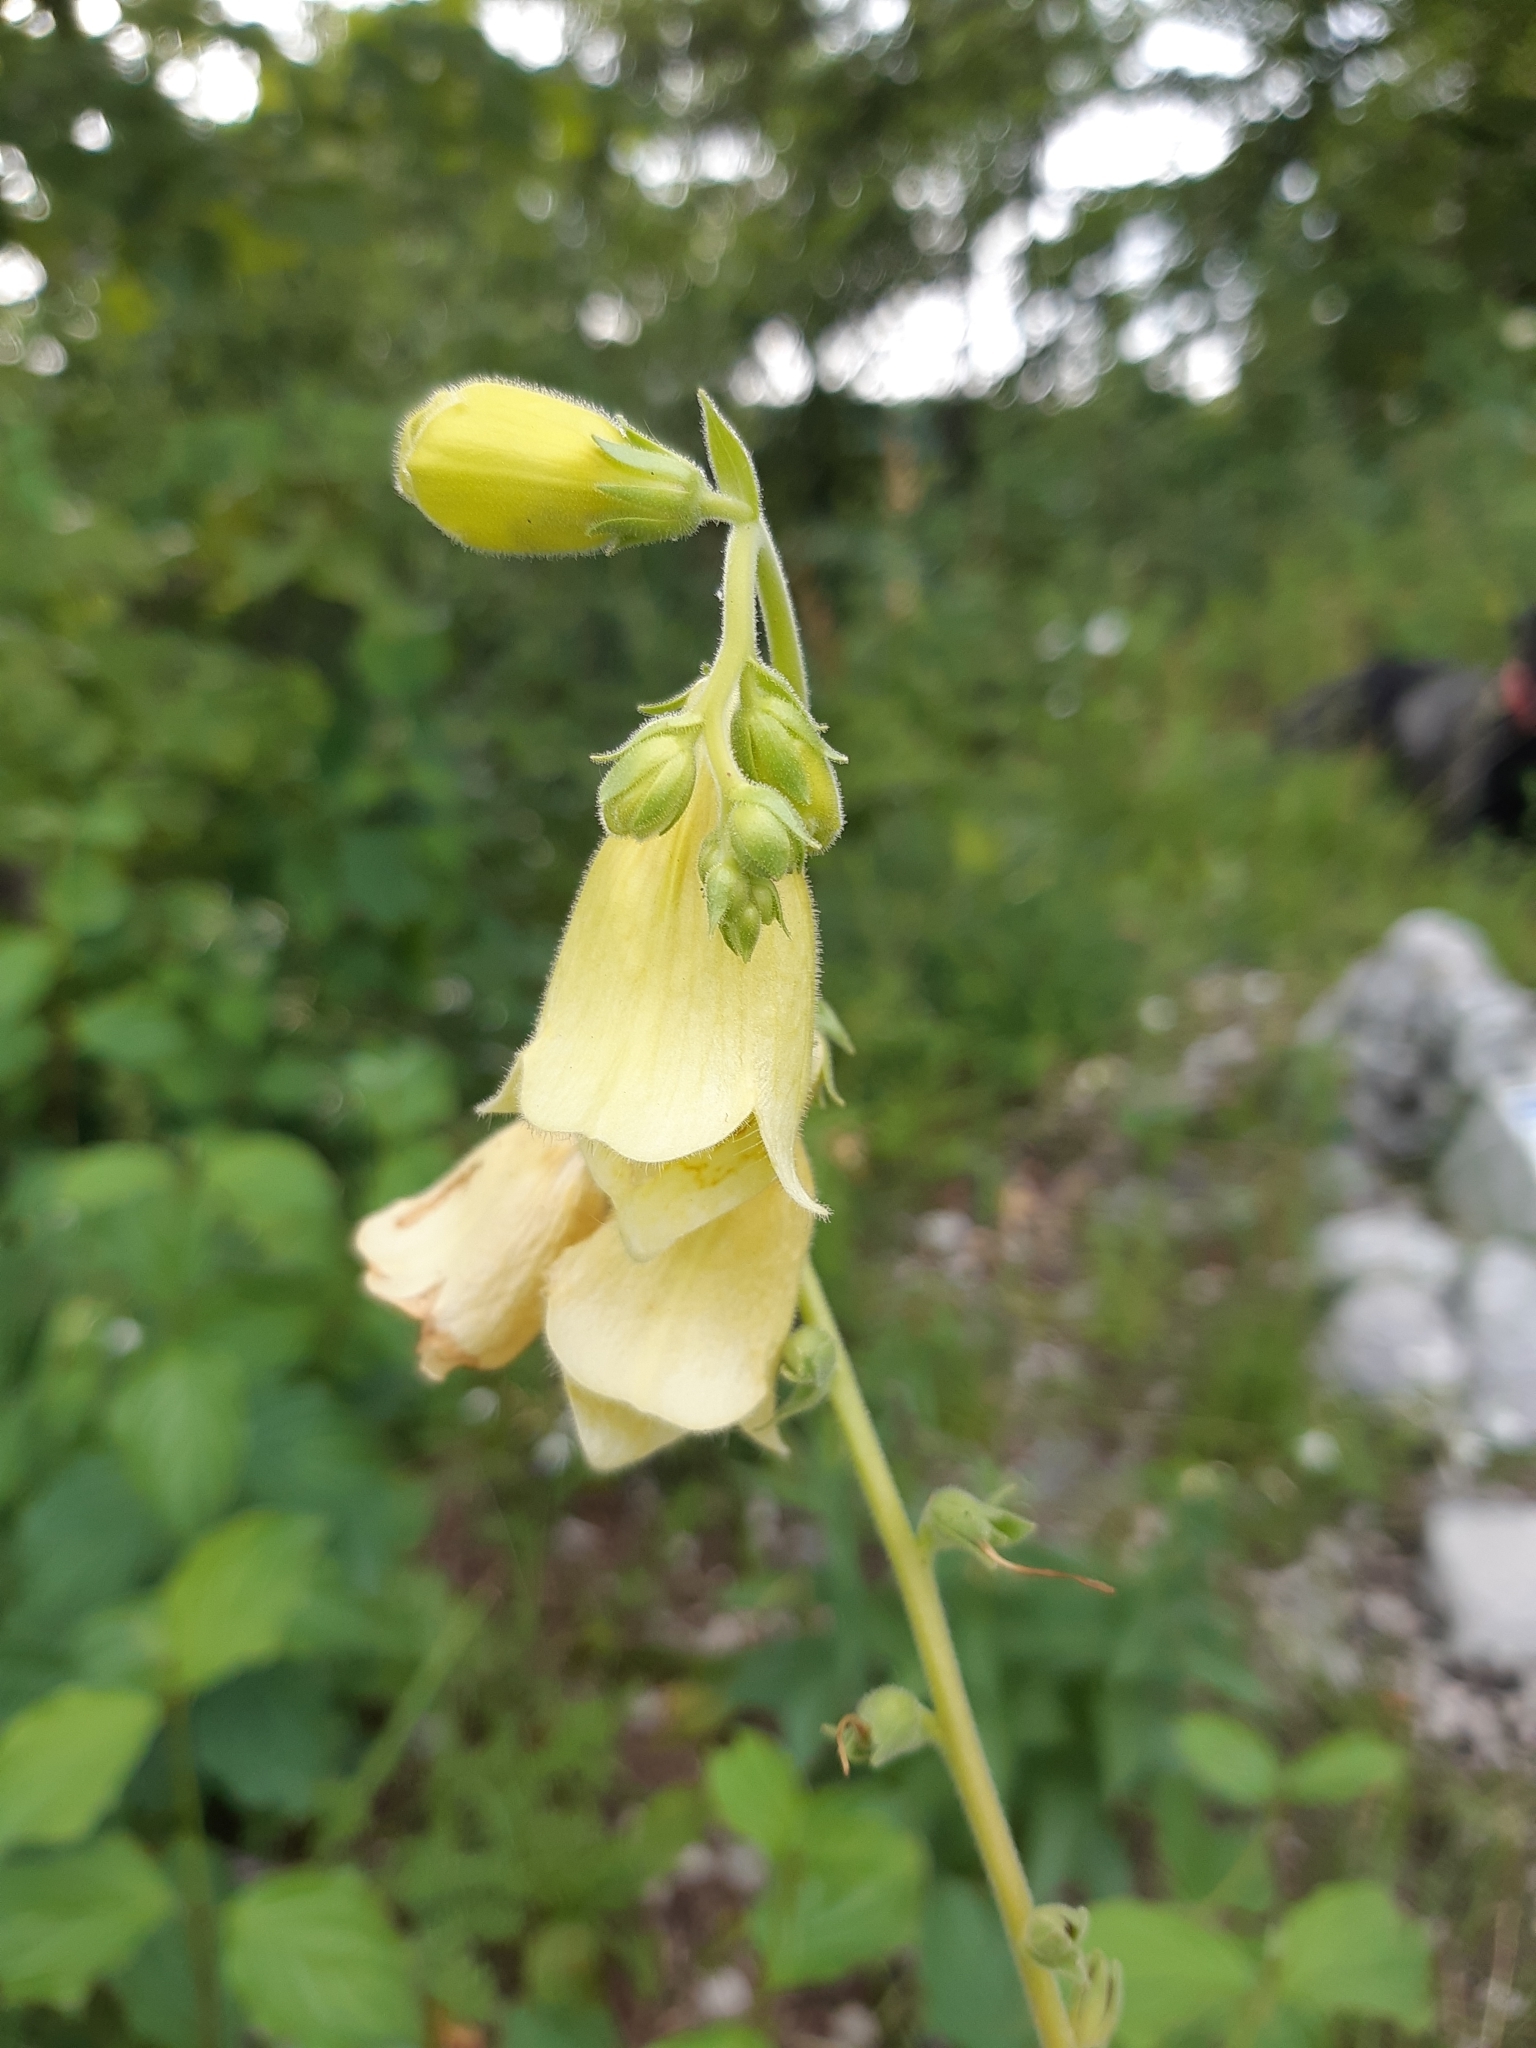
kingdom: Plantae
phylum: Tracheophyta
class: Magnoliopsida
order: Lamiales
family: Plantaginaceae
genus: Digitalis
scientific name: Digitalis grandiflora
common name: Yellow foxglove
